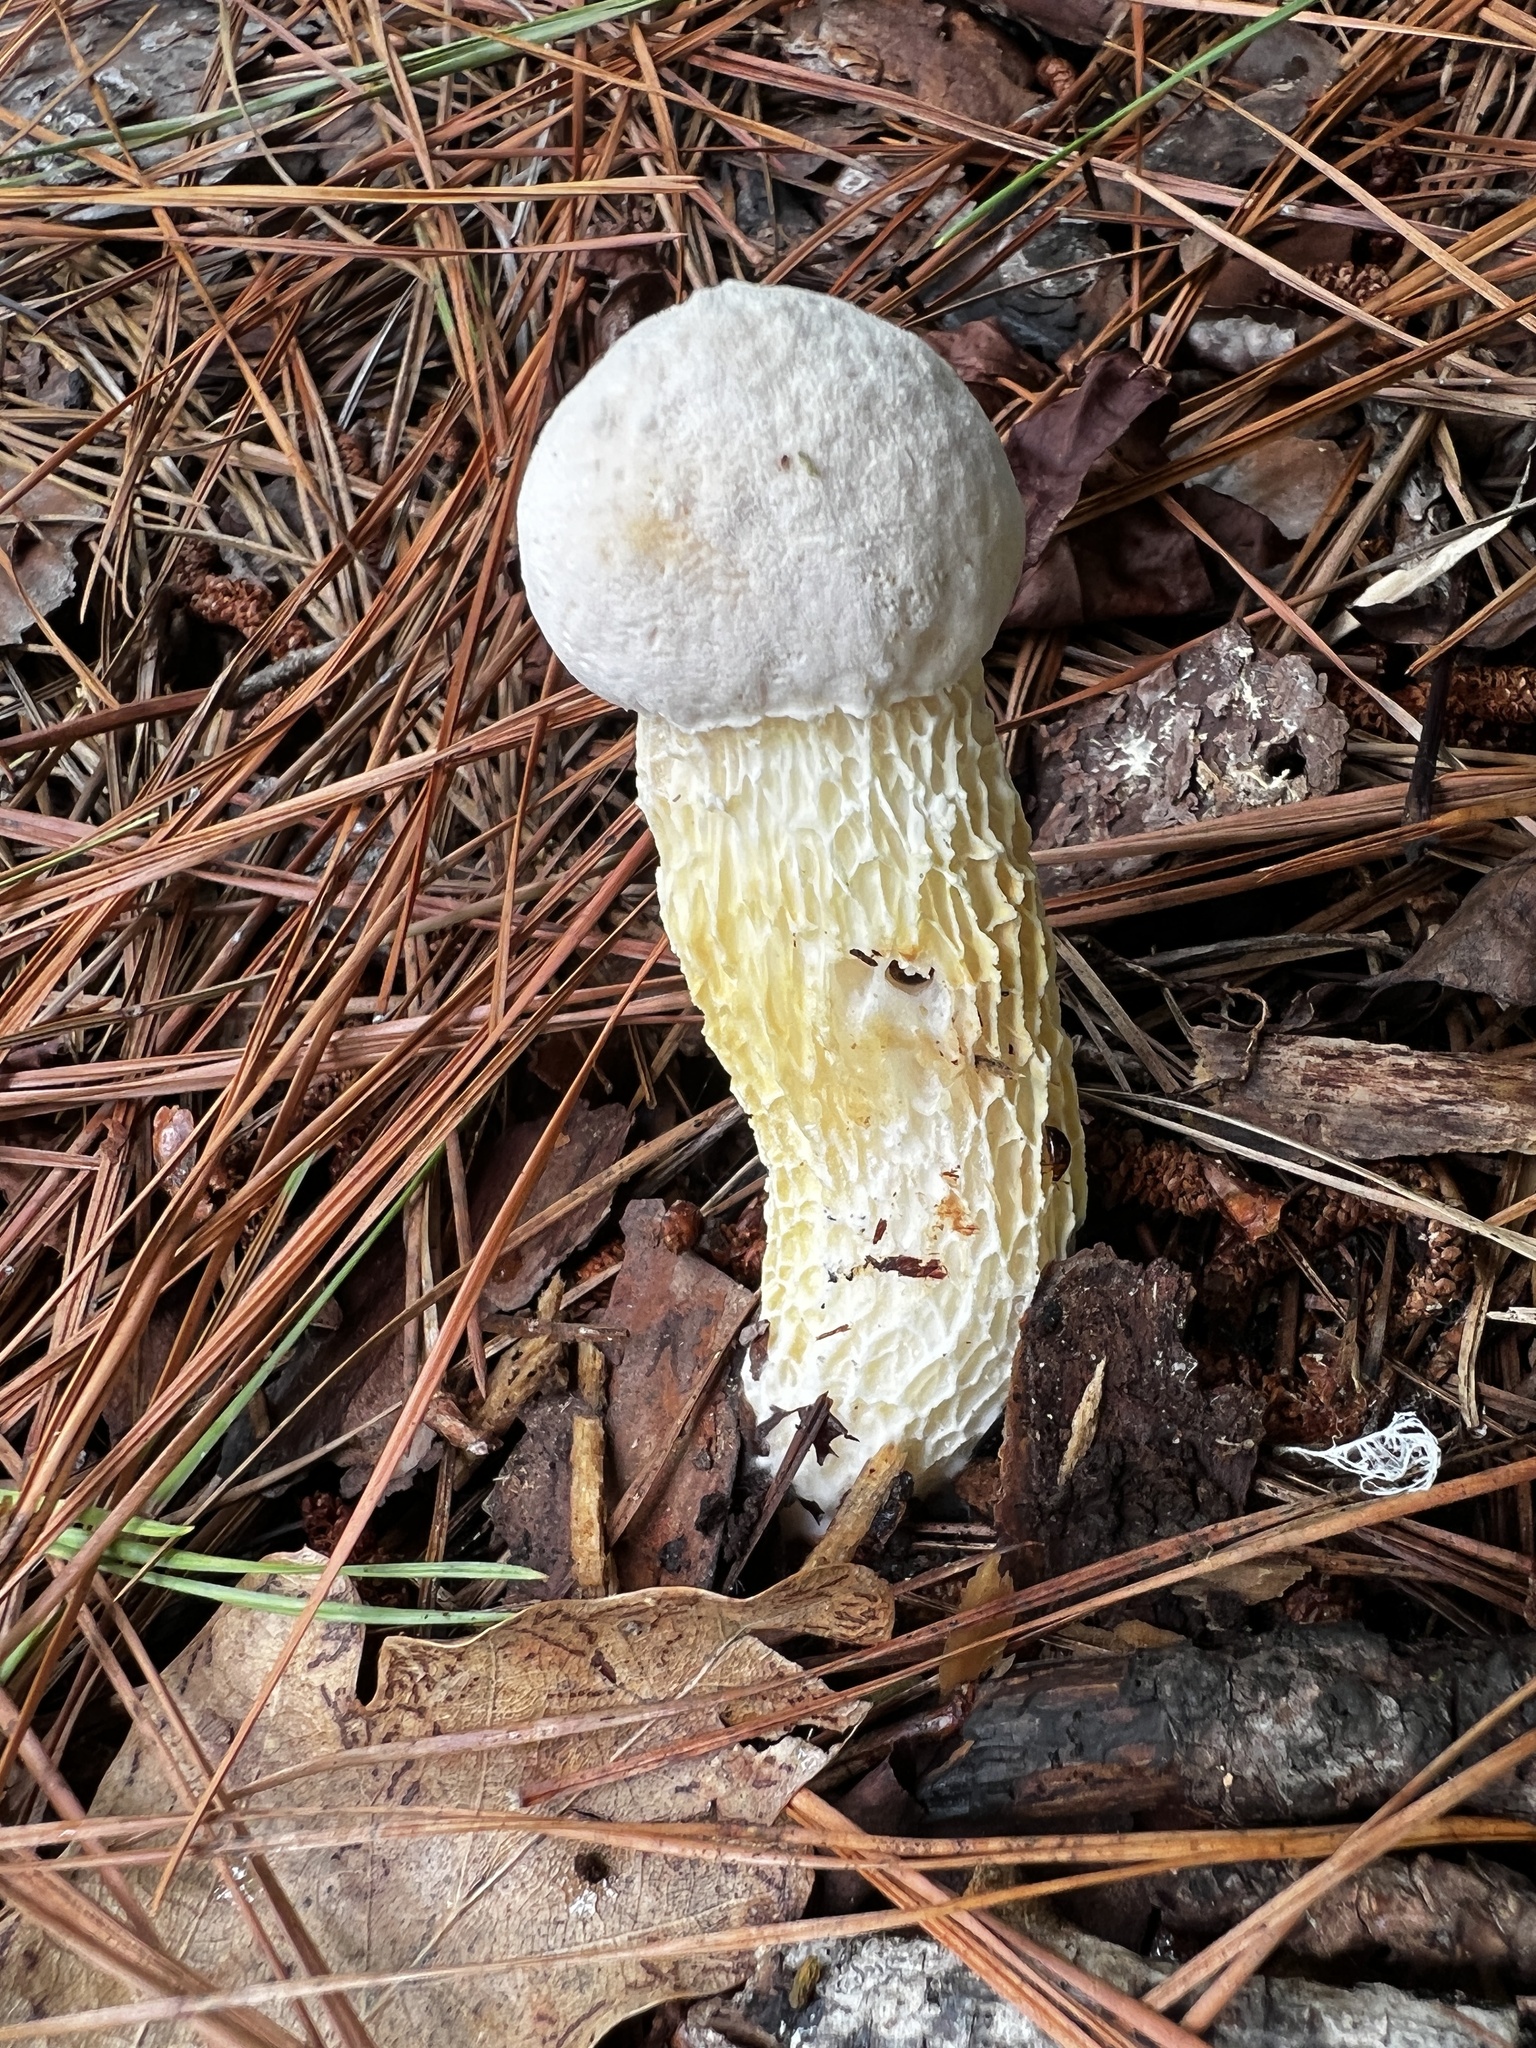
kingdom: Fungi
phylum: Basidiomycota
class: Agaricomycetes
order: Boletales
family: Boletaceae
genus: Austroboletus
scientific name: Austroboletus subflavidus
